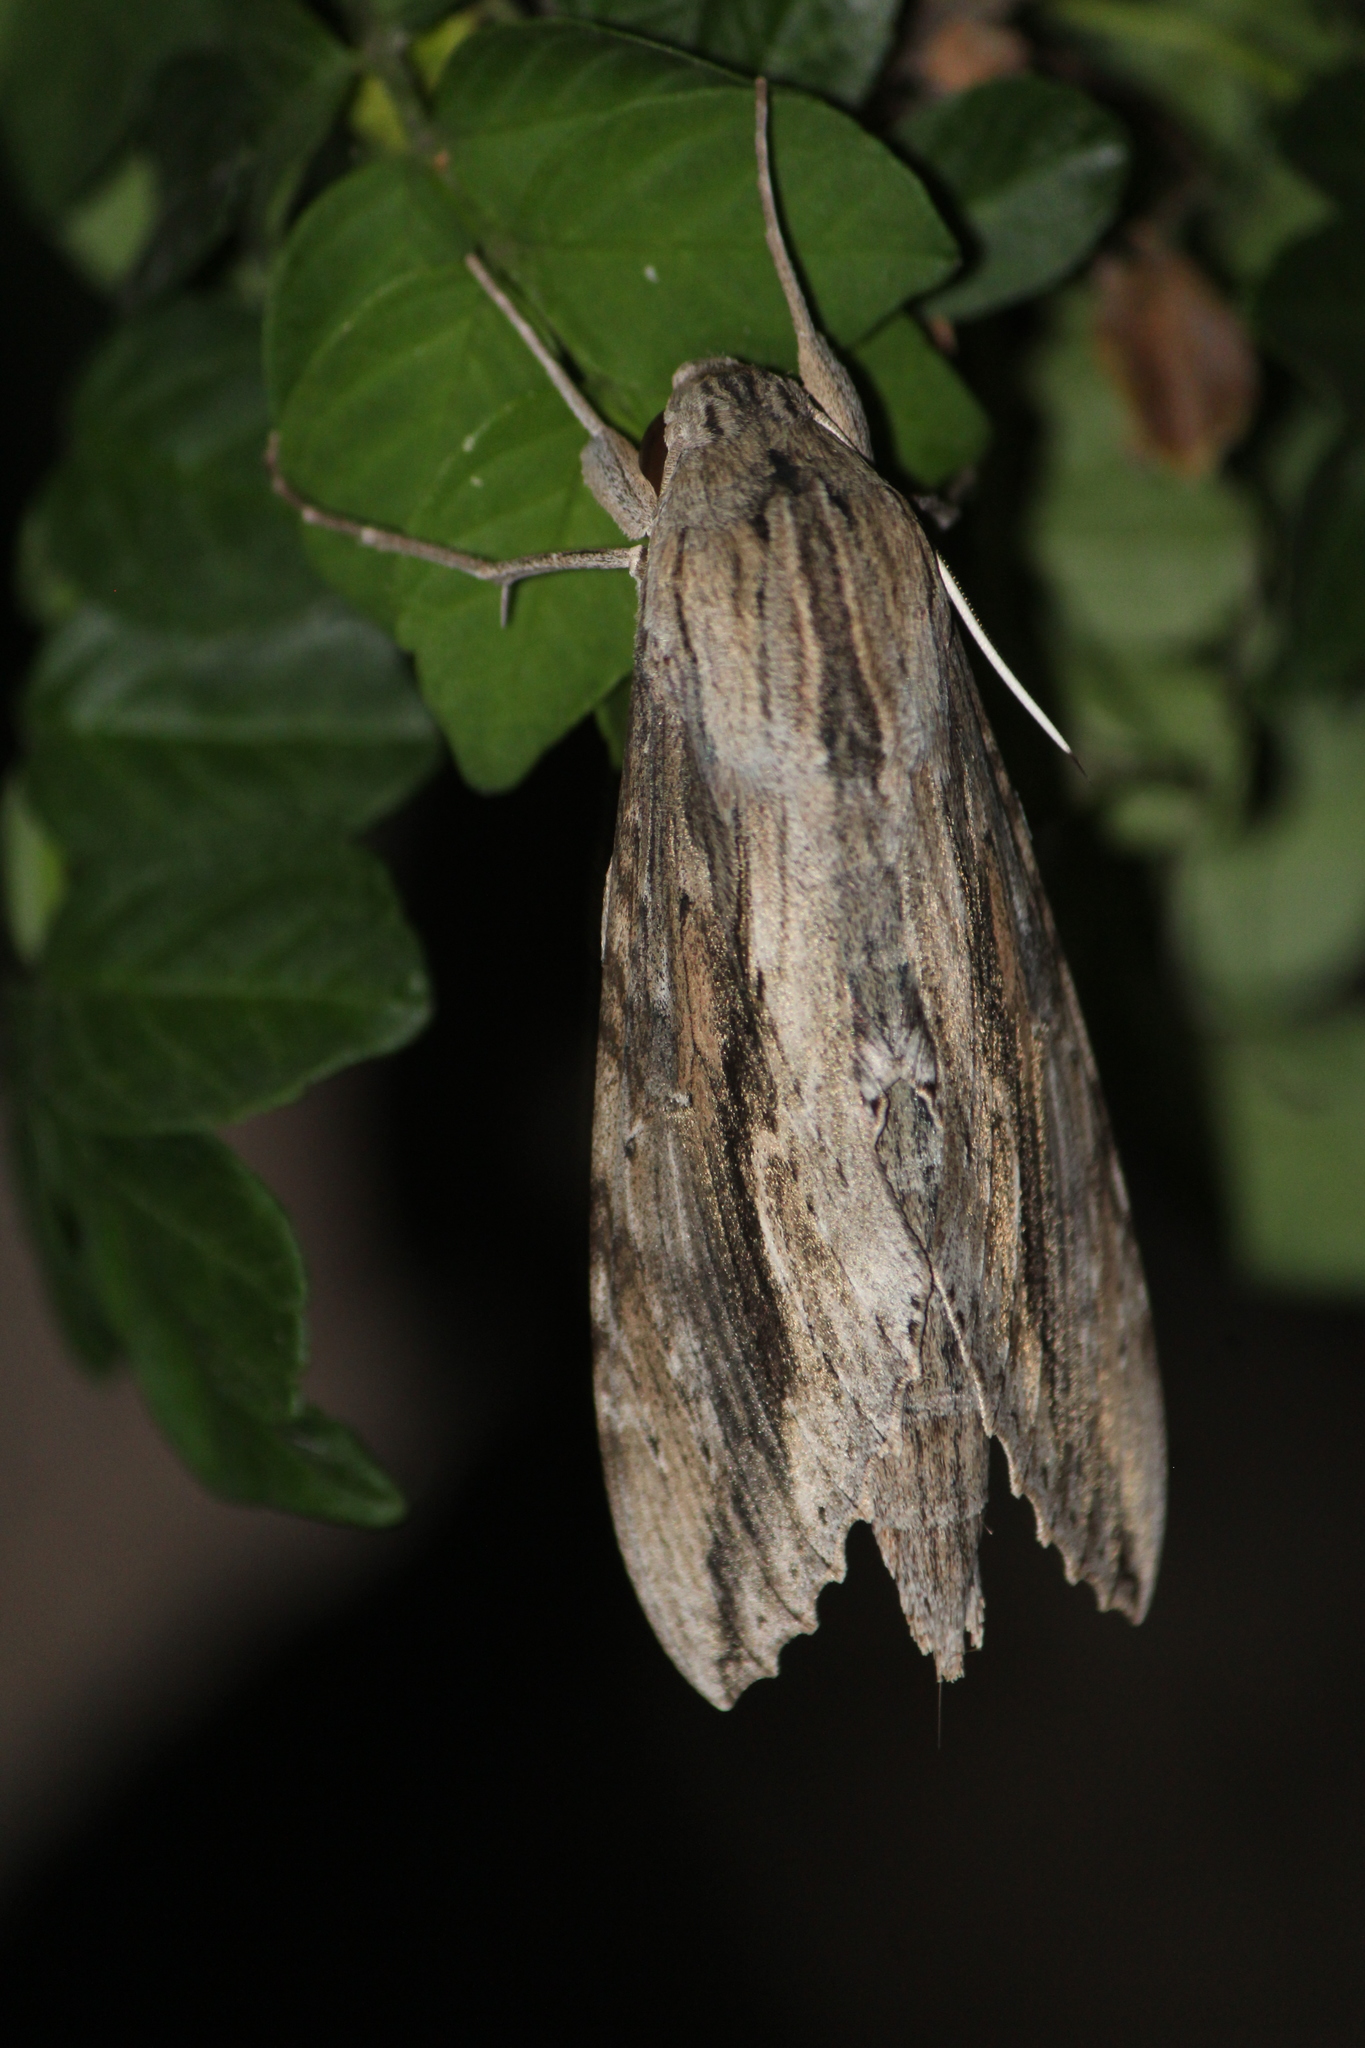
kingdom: Animalia
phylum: Arthropoda
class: Insecta
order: Lepidoptera
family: Sphingidae
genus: Erinnyis
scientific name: Erinnyis ello
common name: Ello sphinx
